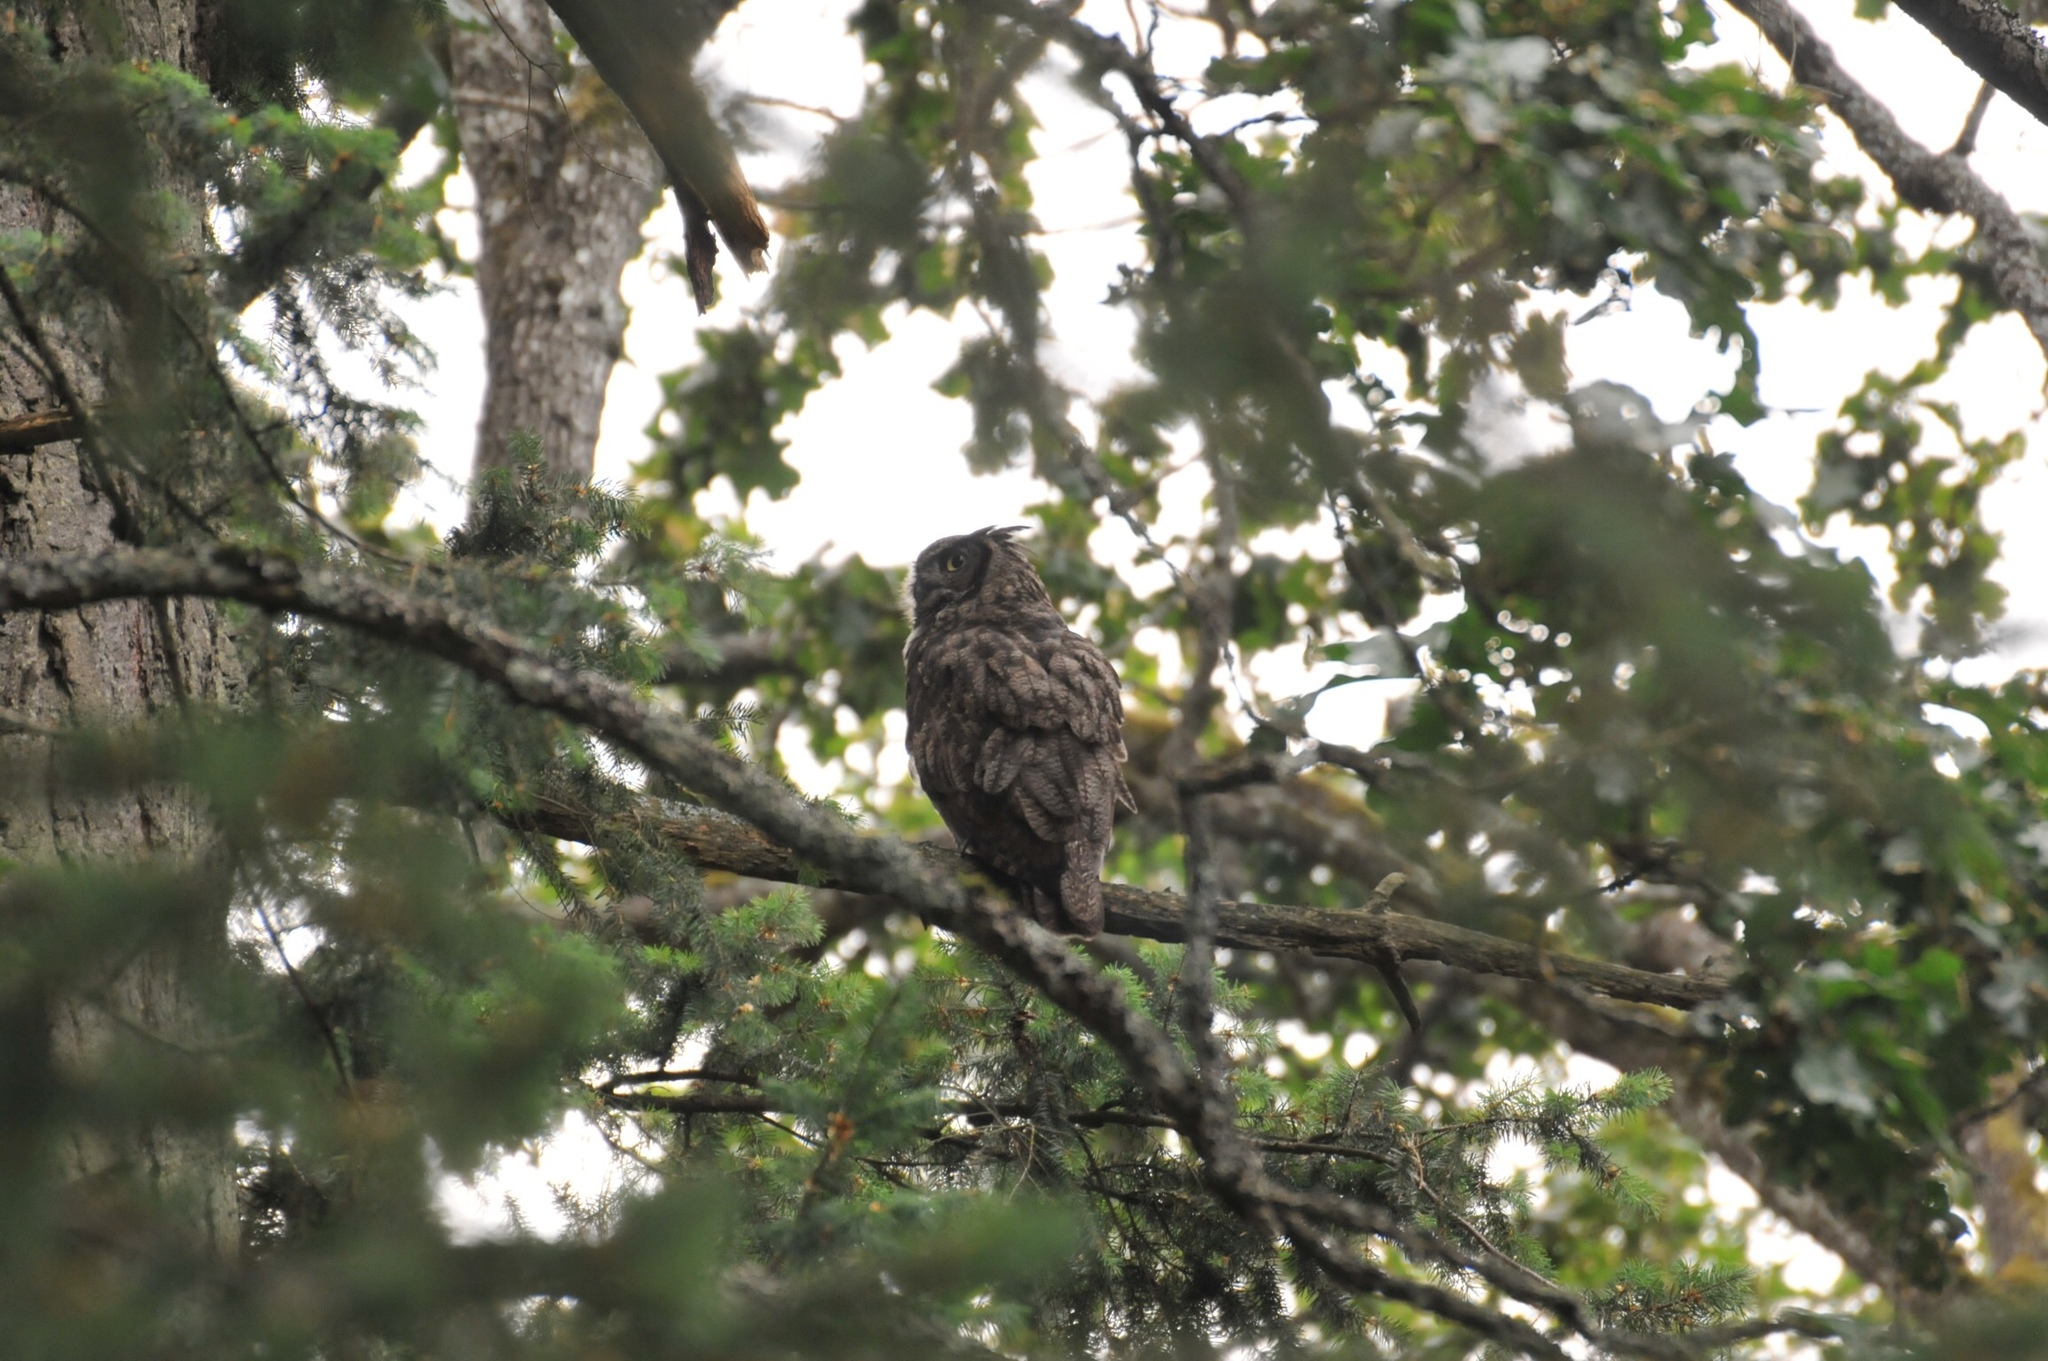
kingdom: Animalia
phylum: Chordata
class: Aves
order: Strigiformes
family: Strigidae
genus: Bubo
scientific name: Bubo virginianus
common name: Great horned owl
